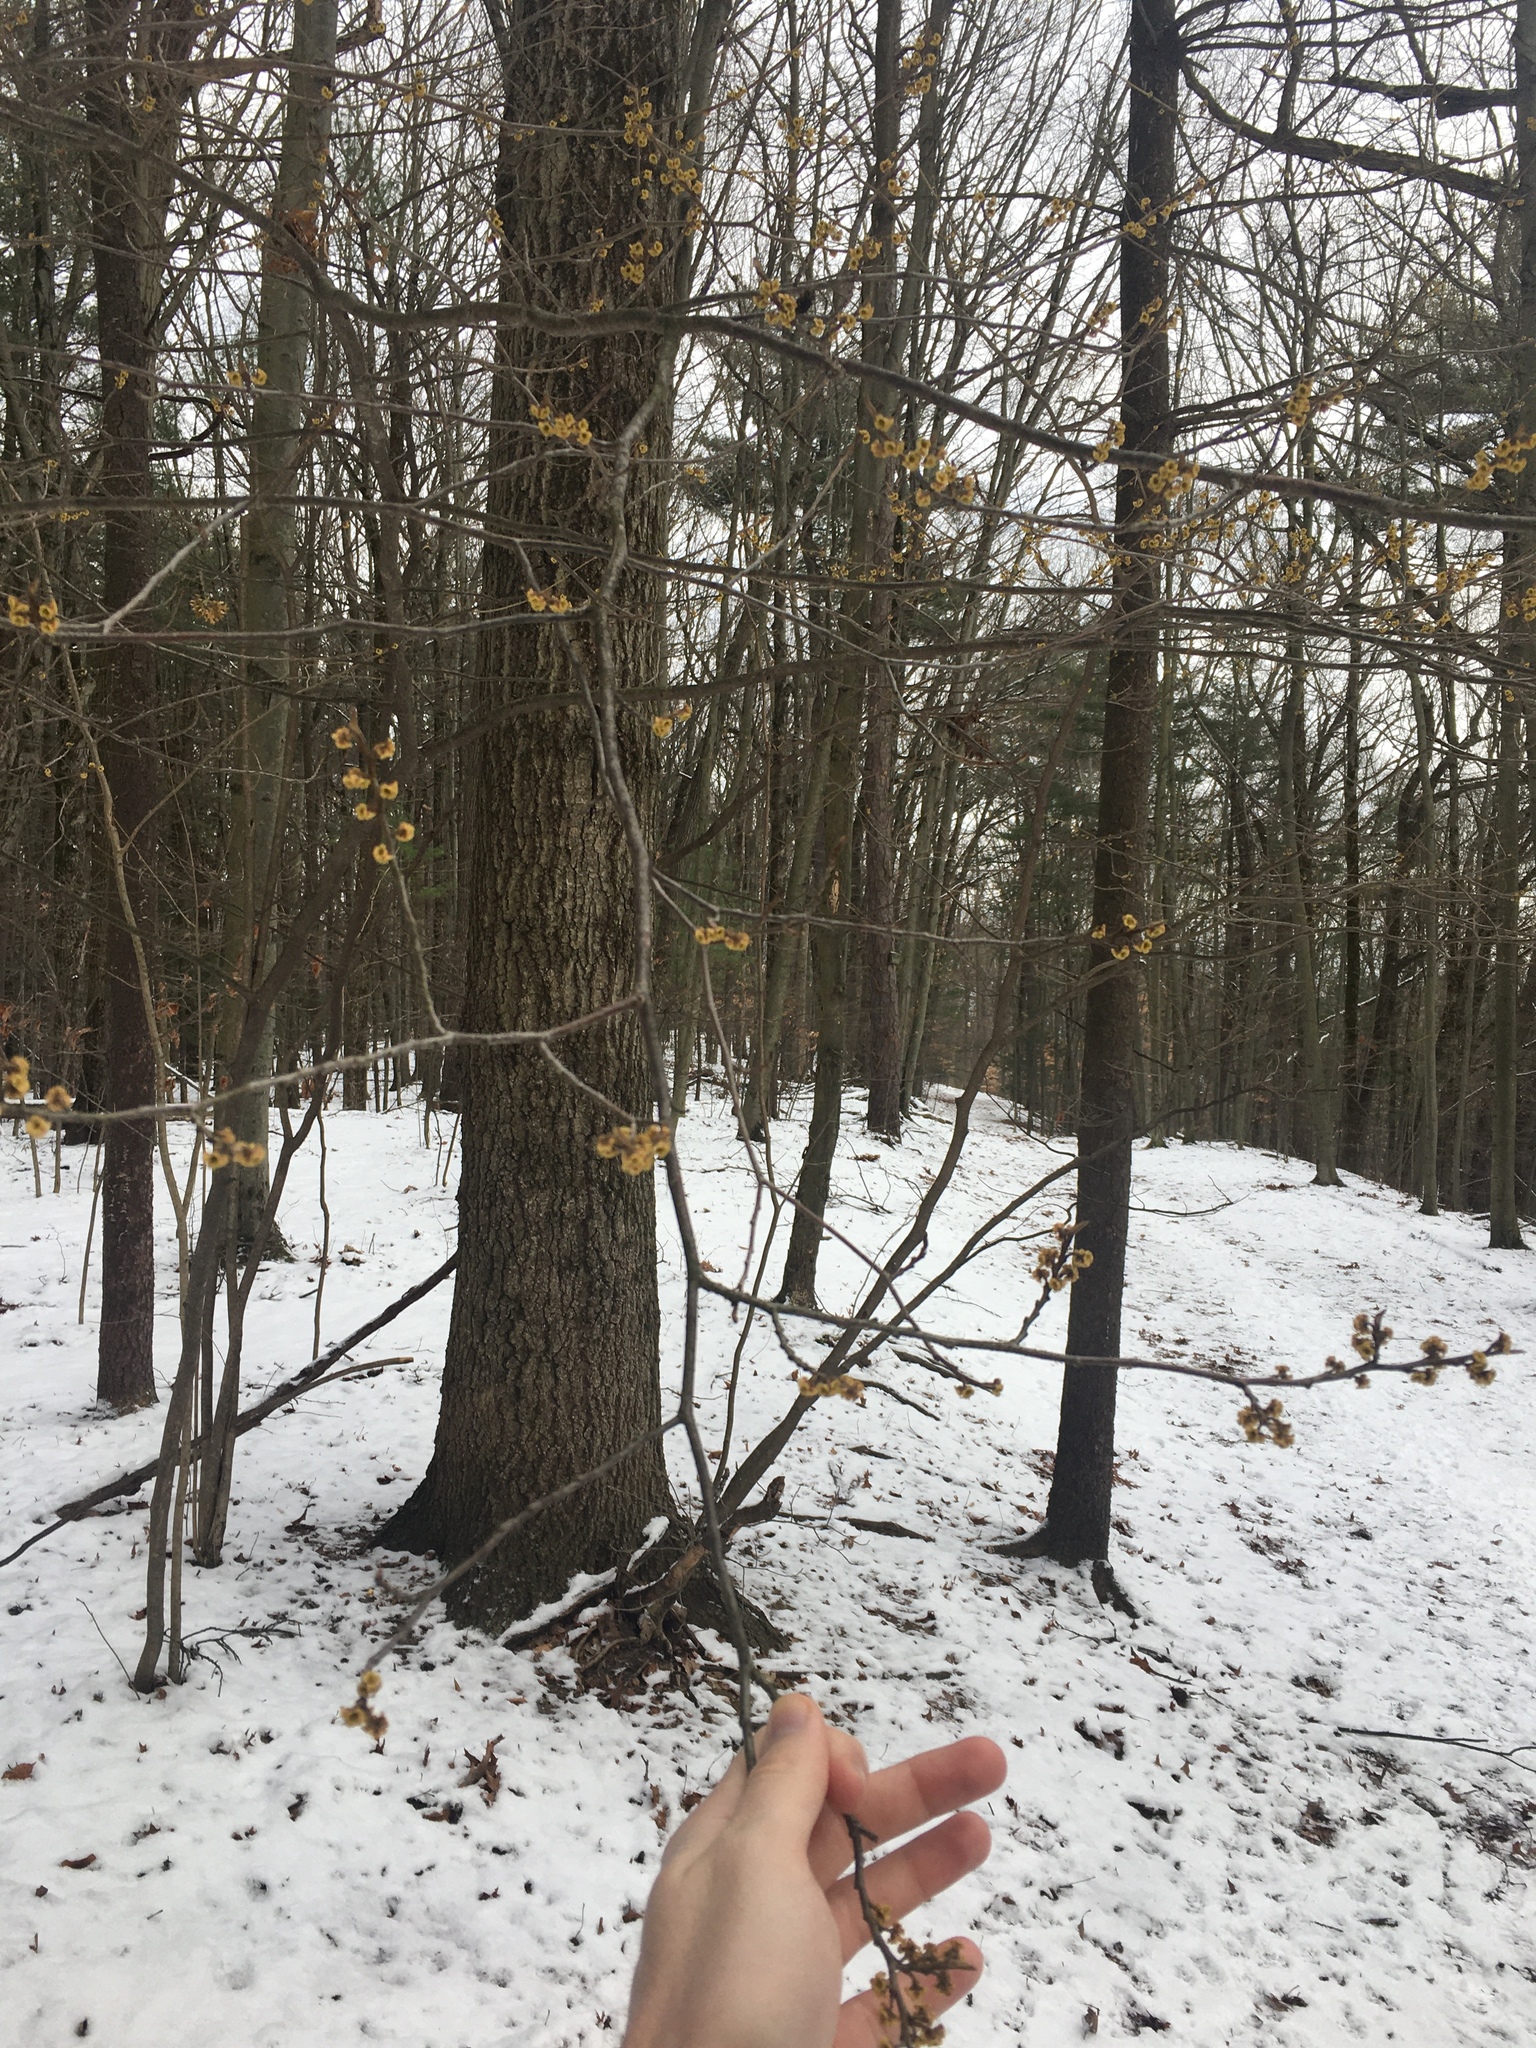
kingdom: Plantae
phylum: Tracheophyta
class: Magnoliopsida
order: Saxifragales
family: Hamamelidaceae
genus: Hamamelis
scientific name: Hamamelis virginiana
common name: Witch-hazel
